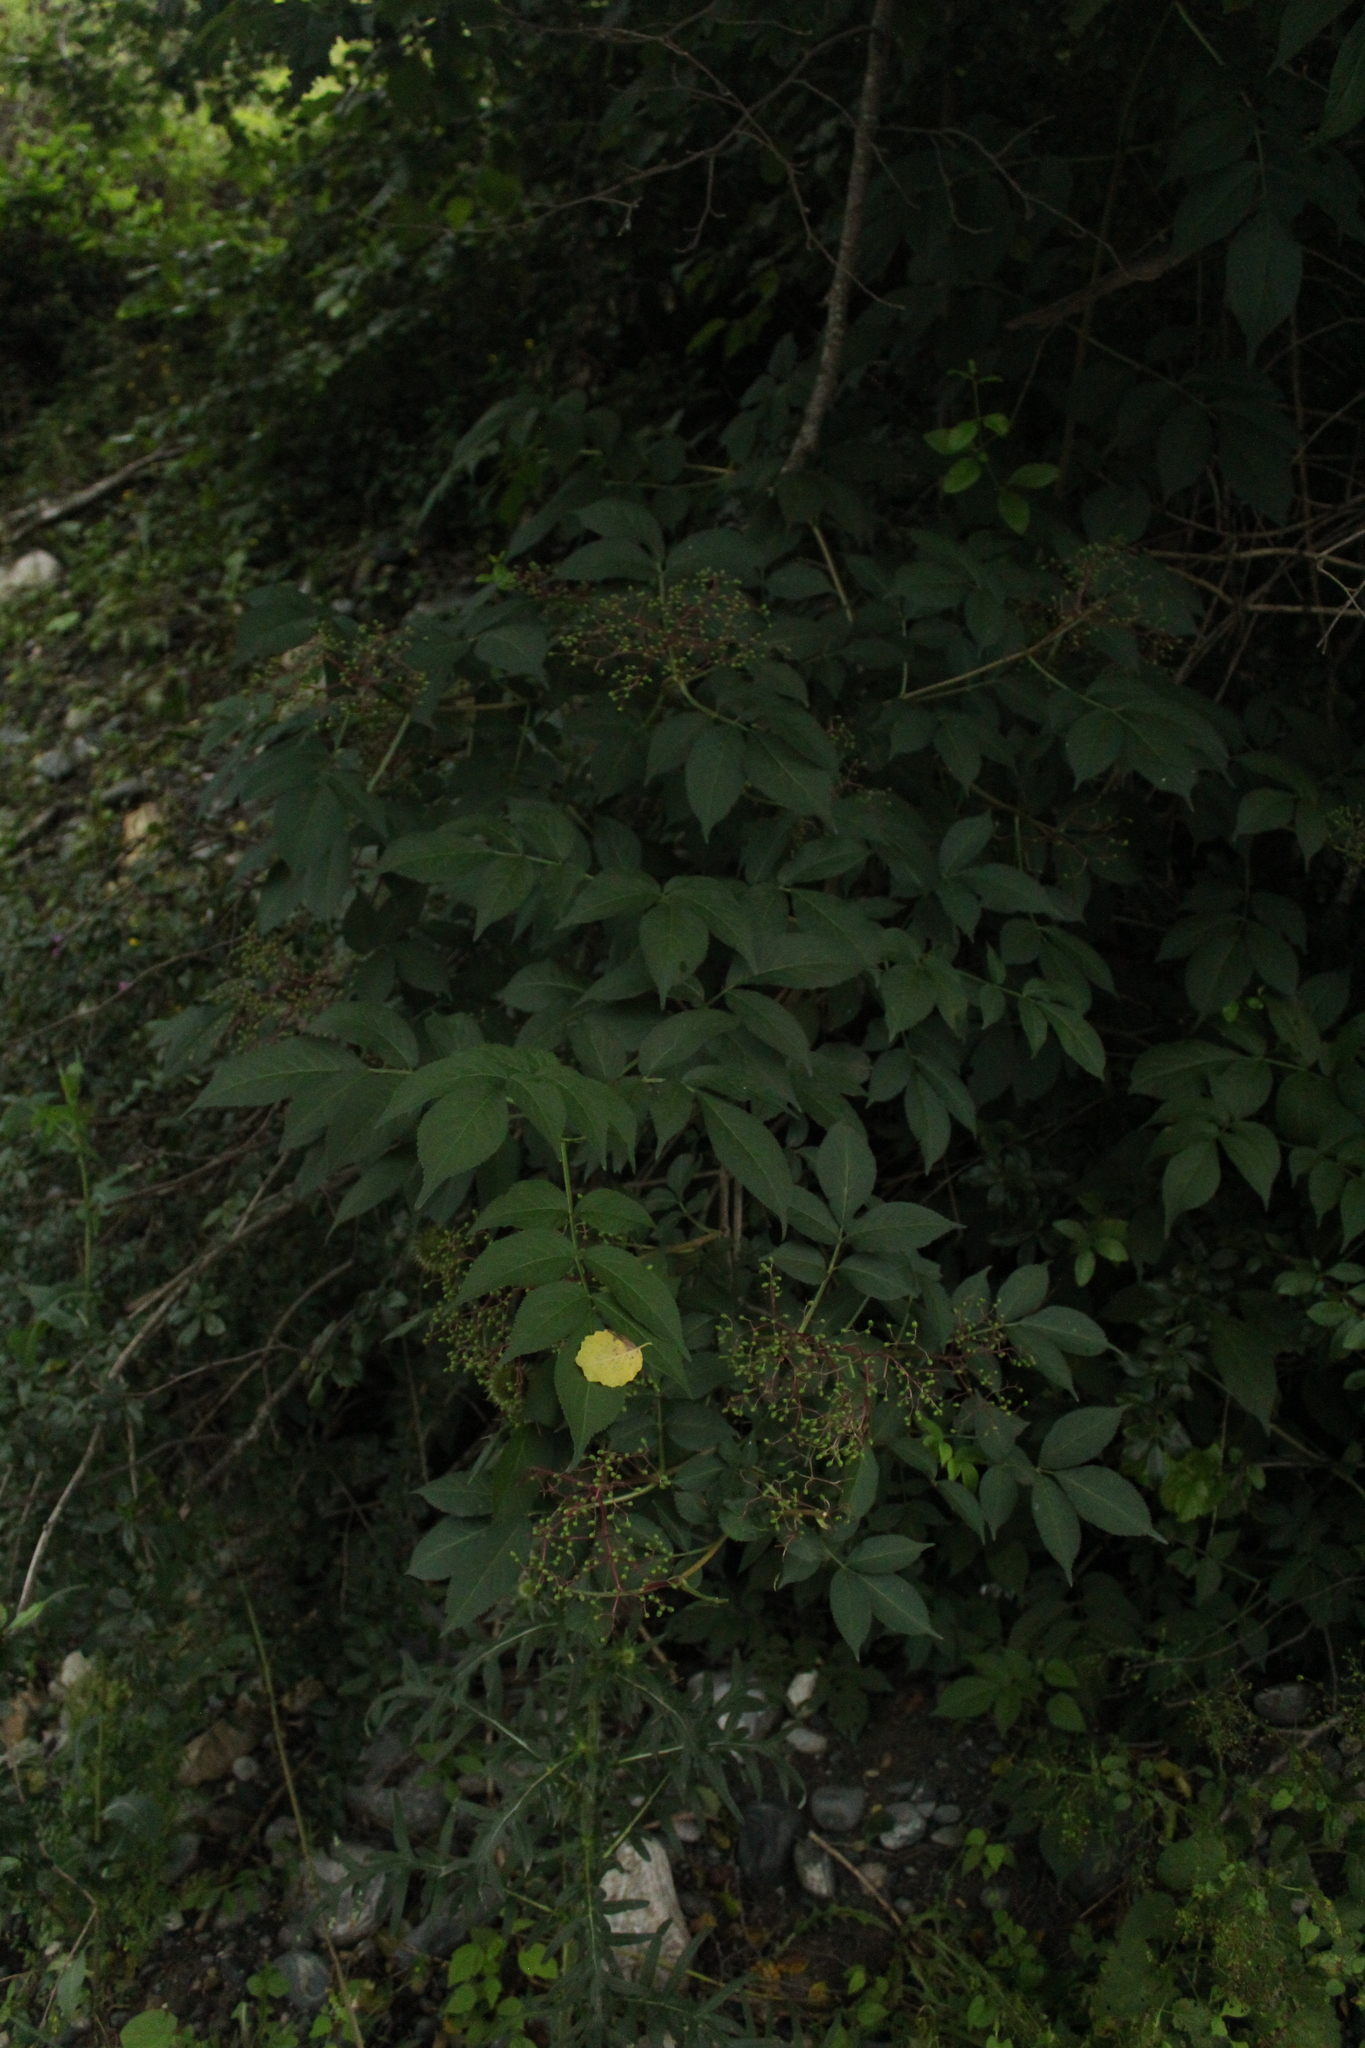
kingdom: Plantae
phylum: Tracheophyta
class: Magnoliopsida
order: Dipsacales
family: Viburnaceae
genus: Sambucus
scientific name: Sambucus nigra
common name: Elder
